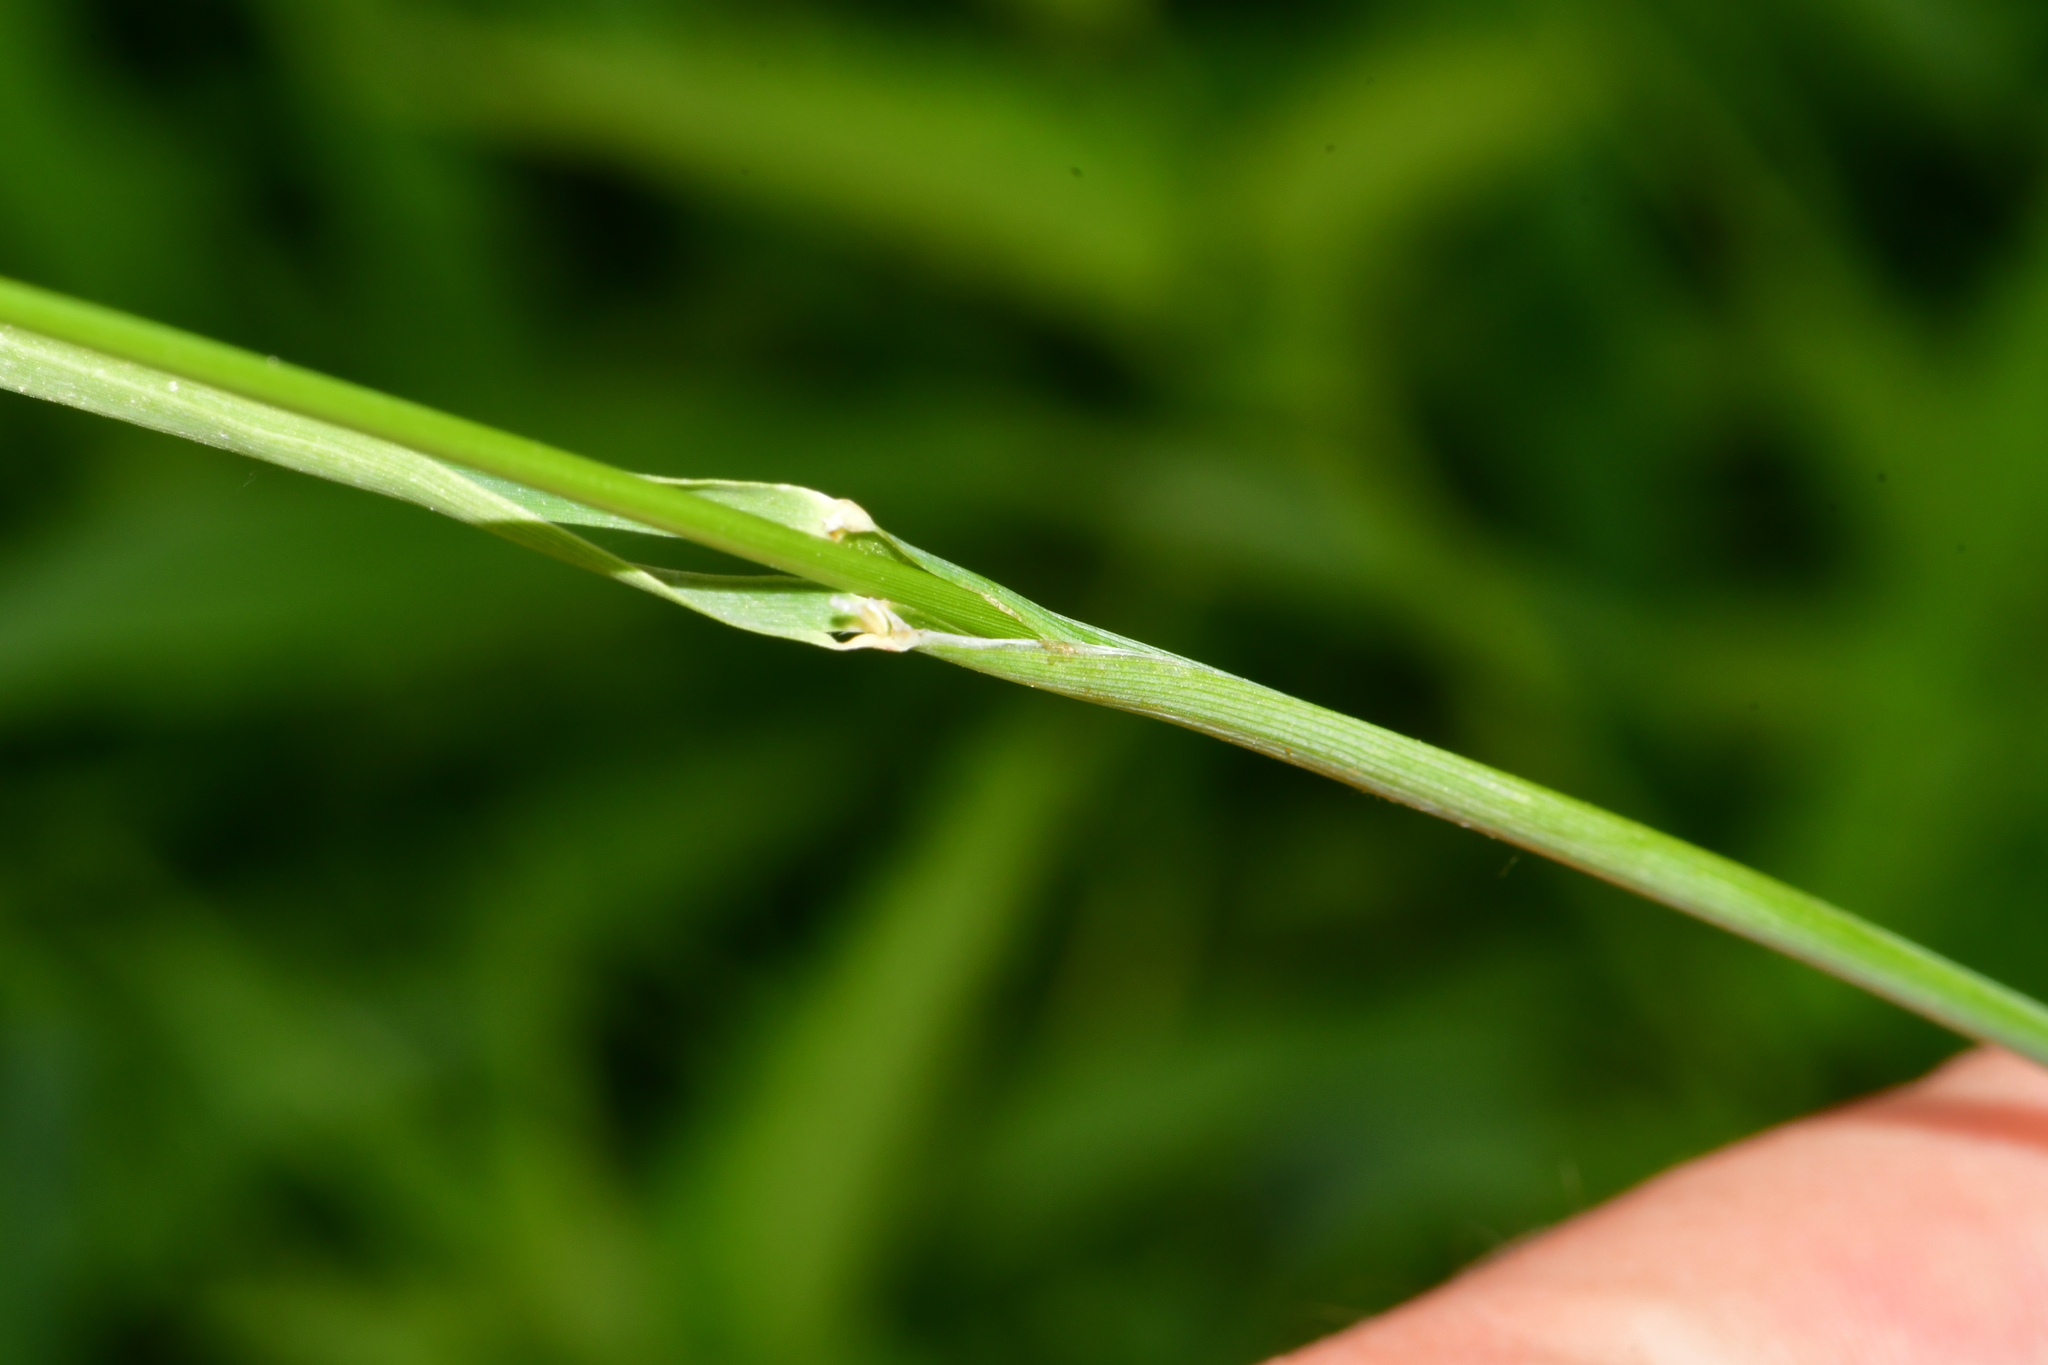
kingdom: Plantae
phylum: Tracheophyta
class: Liliopsida
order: Poales
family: Poaceae
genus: Phalaris
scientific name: Phalaris arundinacea
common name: Reed canary-grass
